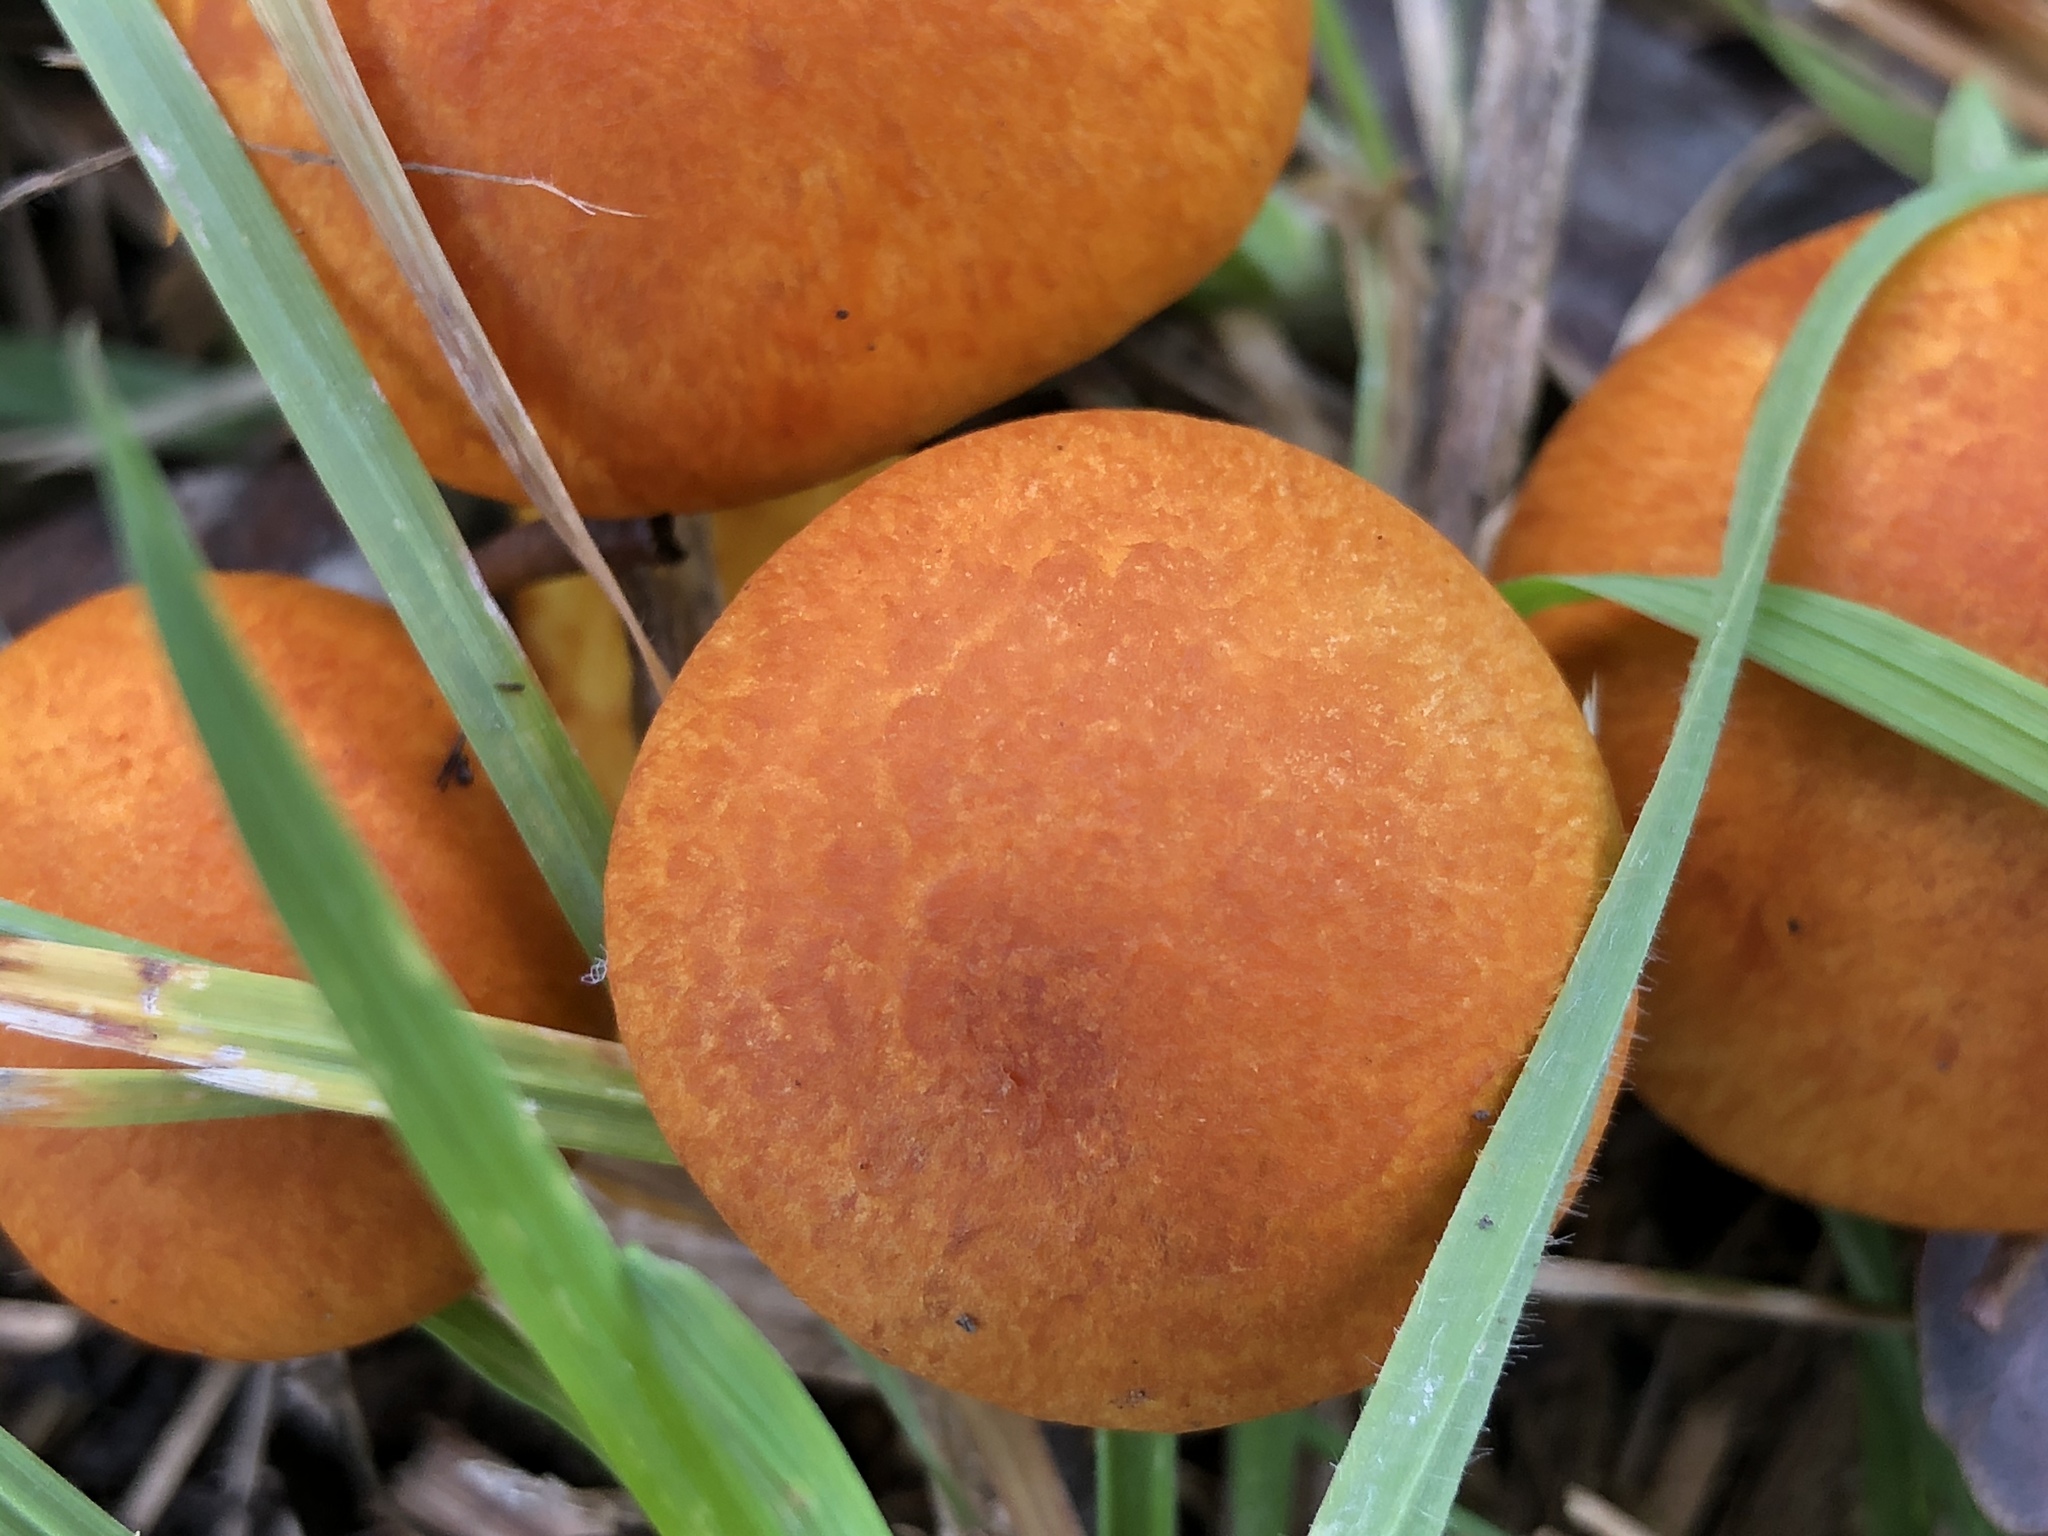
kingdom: Fungi
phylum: Basidiomycota
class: Agaricomycetes
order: Agaricales
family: Hymenogastraceae
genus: Gymnopilus
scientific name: Gymnopilus junonius
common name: Spectacular rustgill
